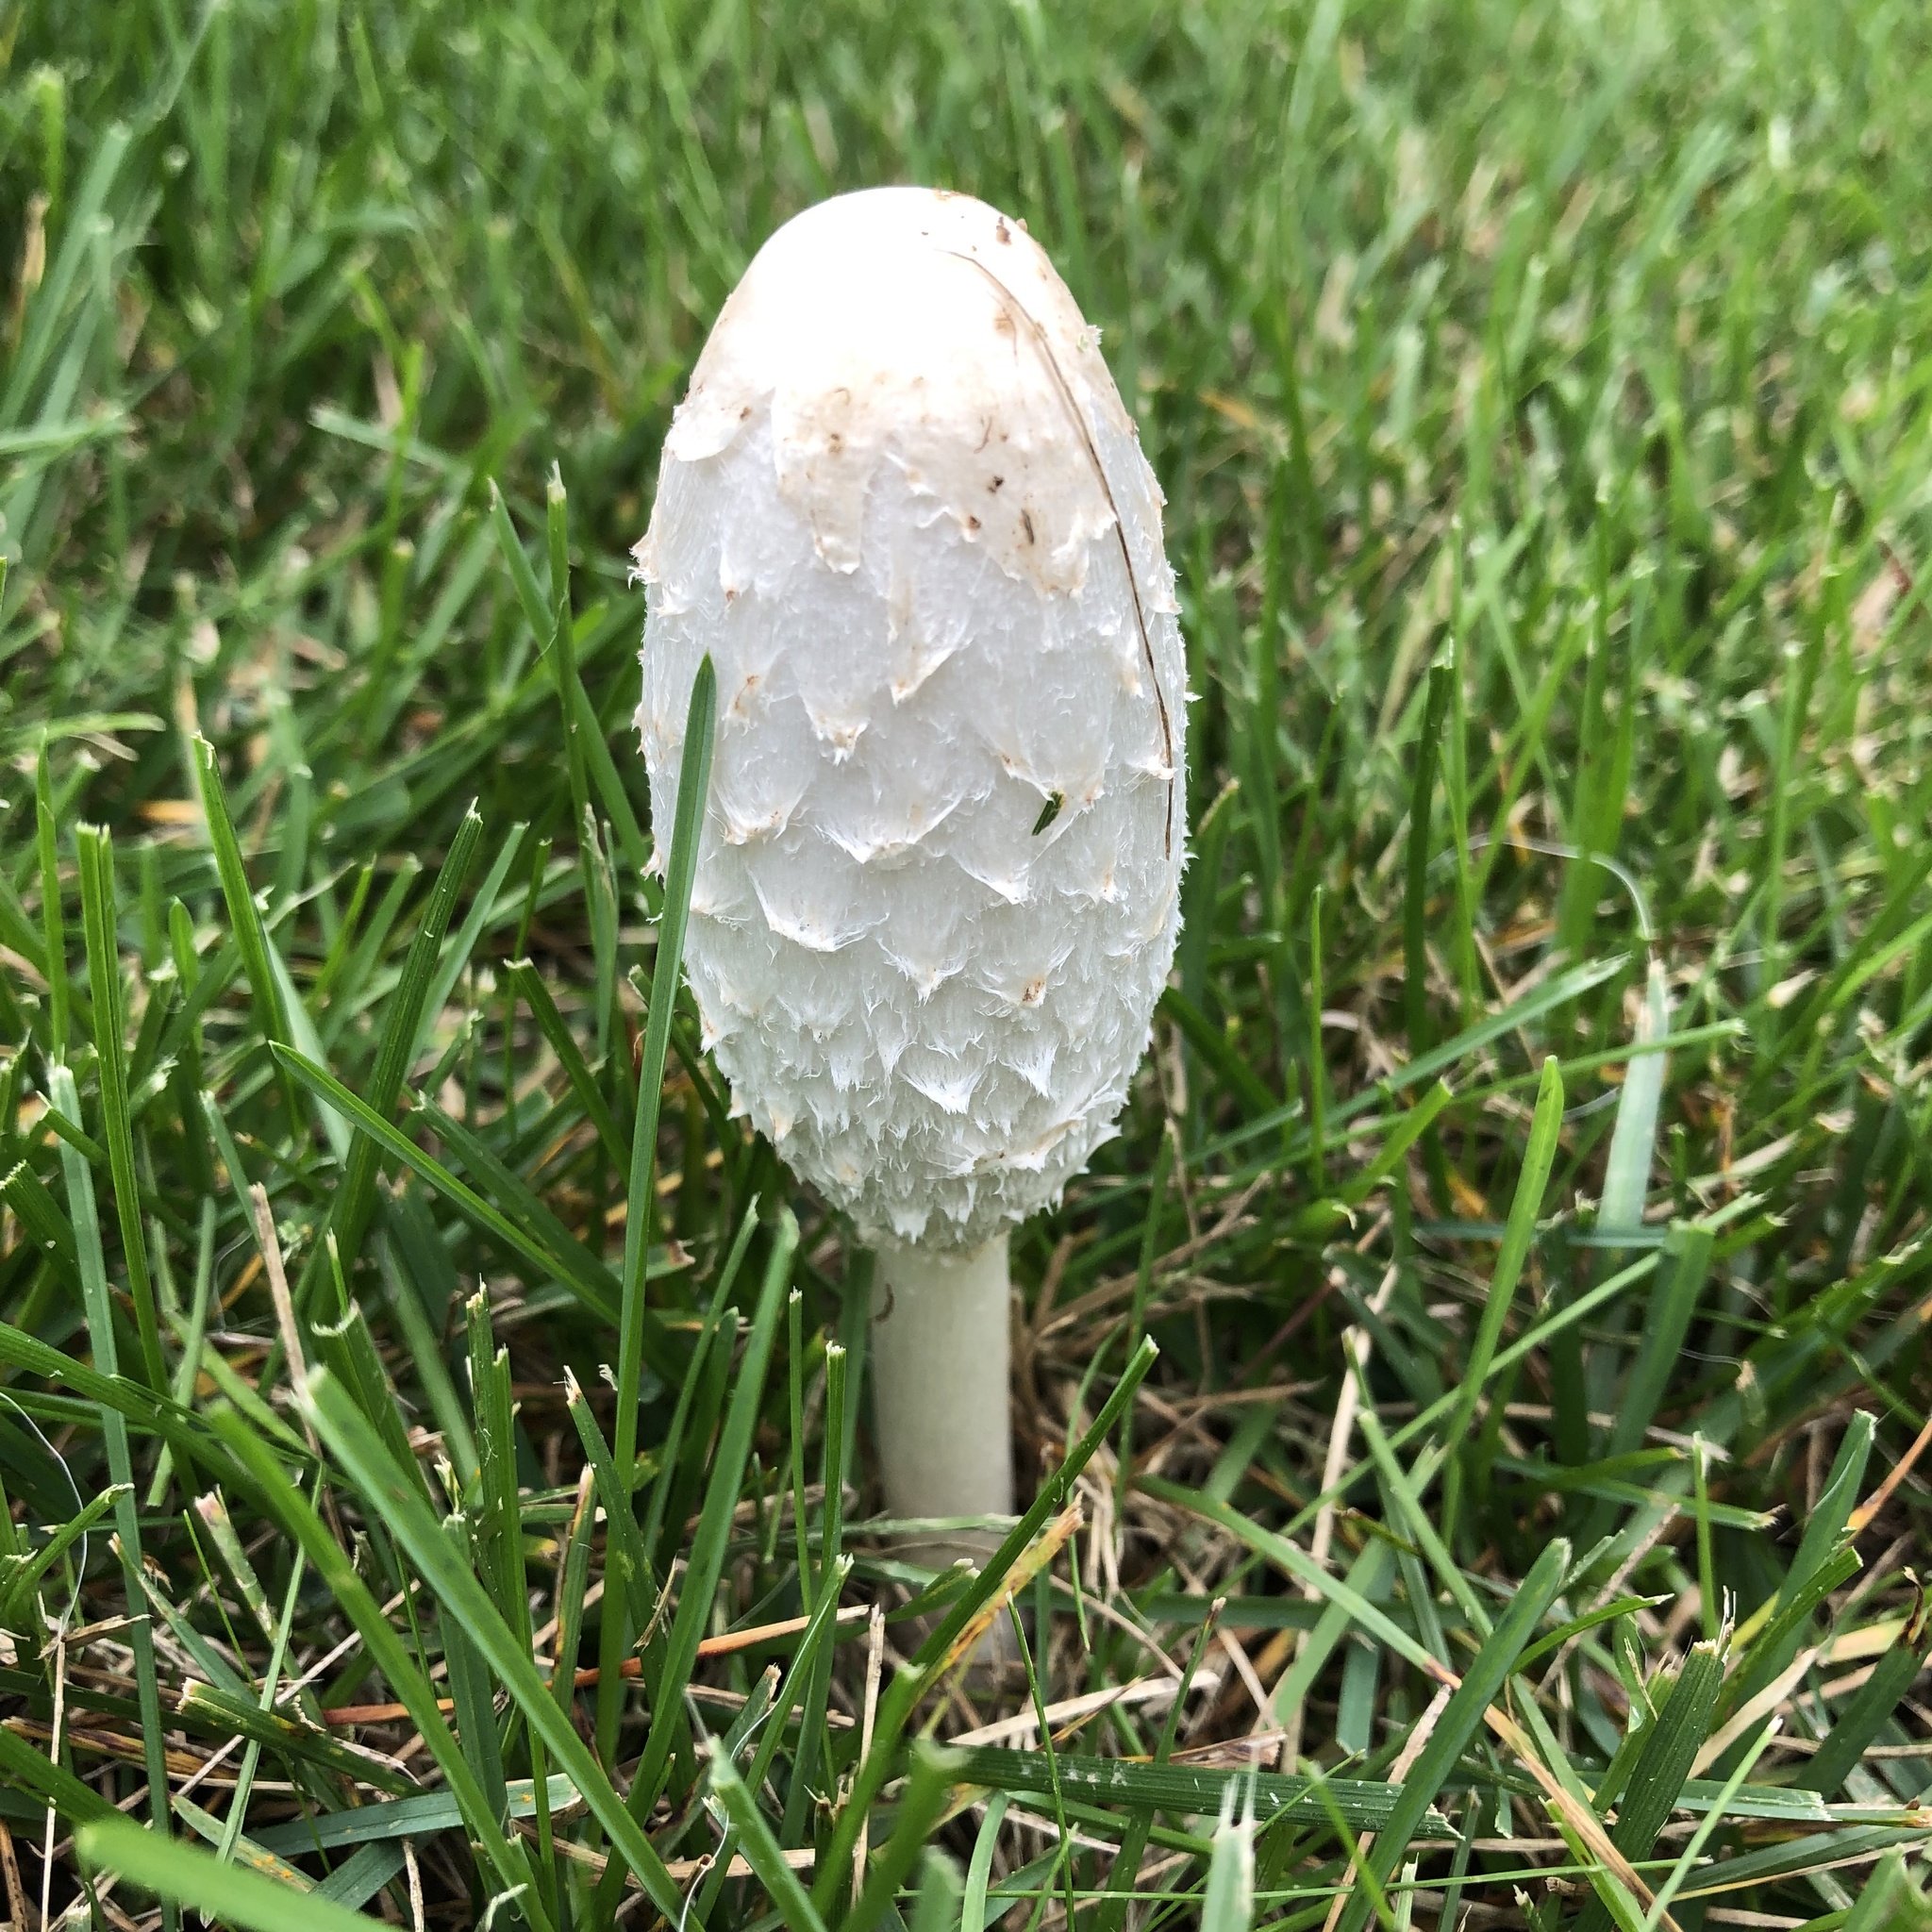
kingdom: Fungi
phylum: Basidiomycota
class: Agaricomycetes
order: Agaricales
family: Agaricaceae
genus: Coprinus
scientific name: Coprinus comatus
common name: Lawyer's wig
